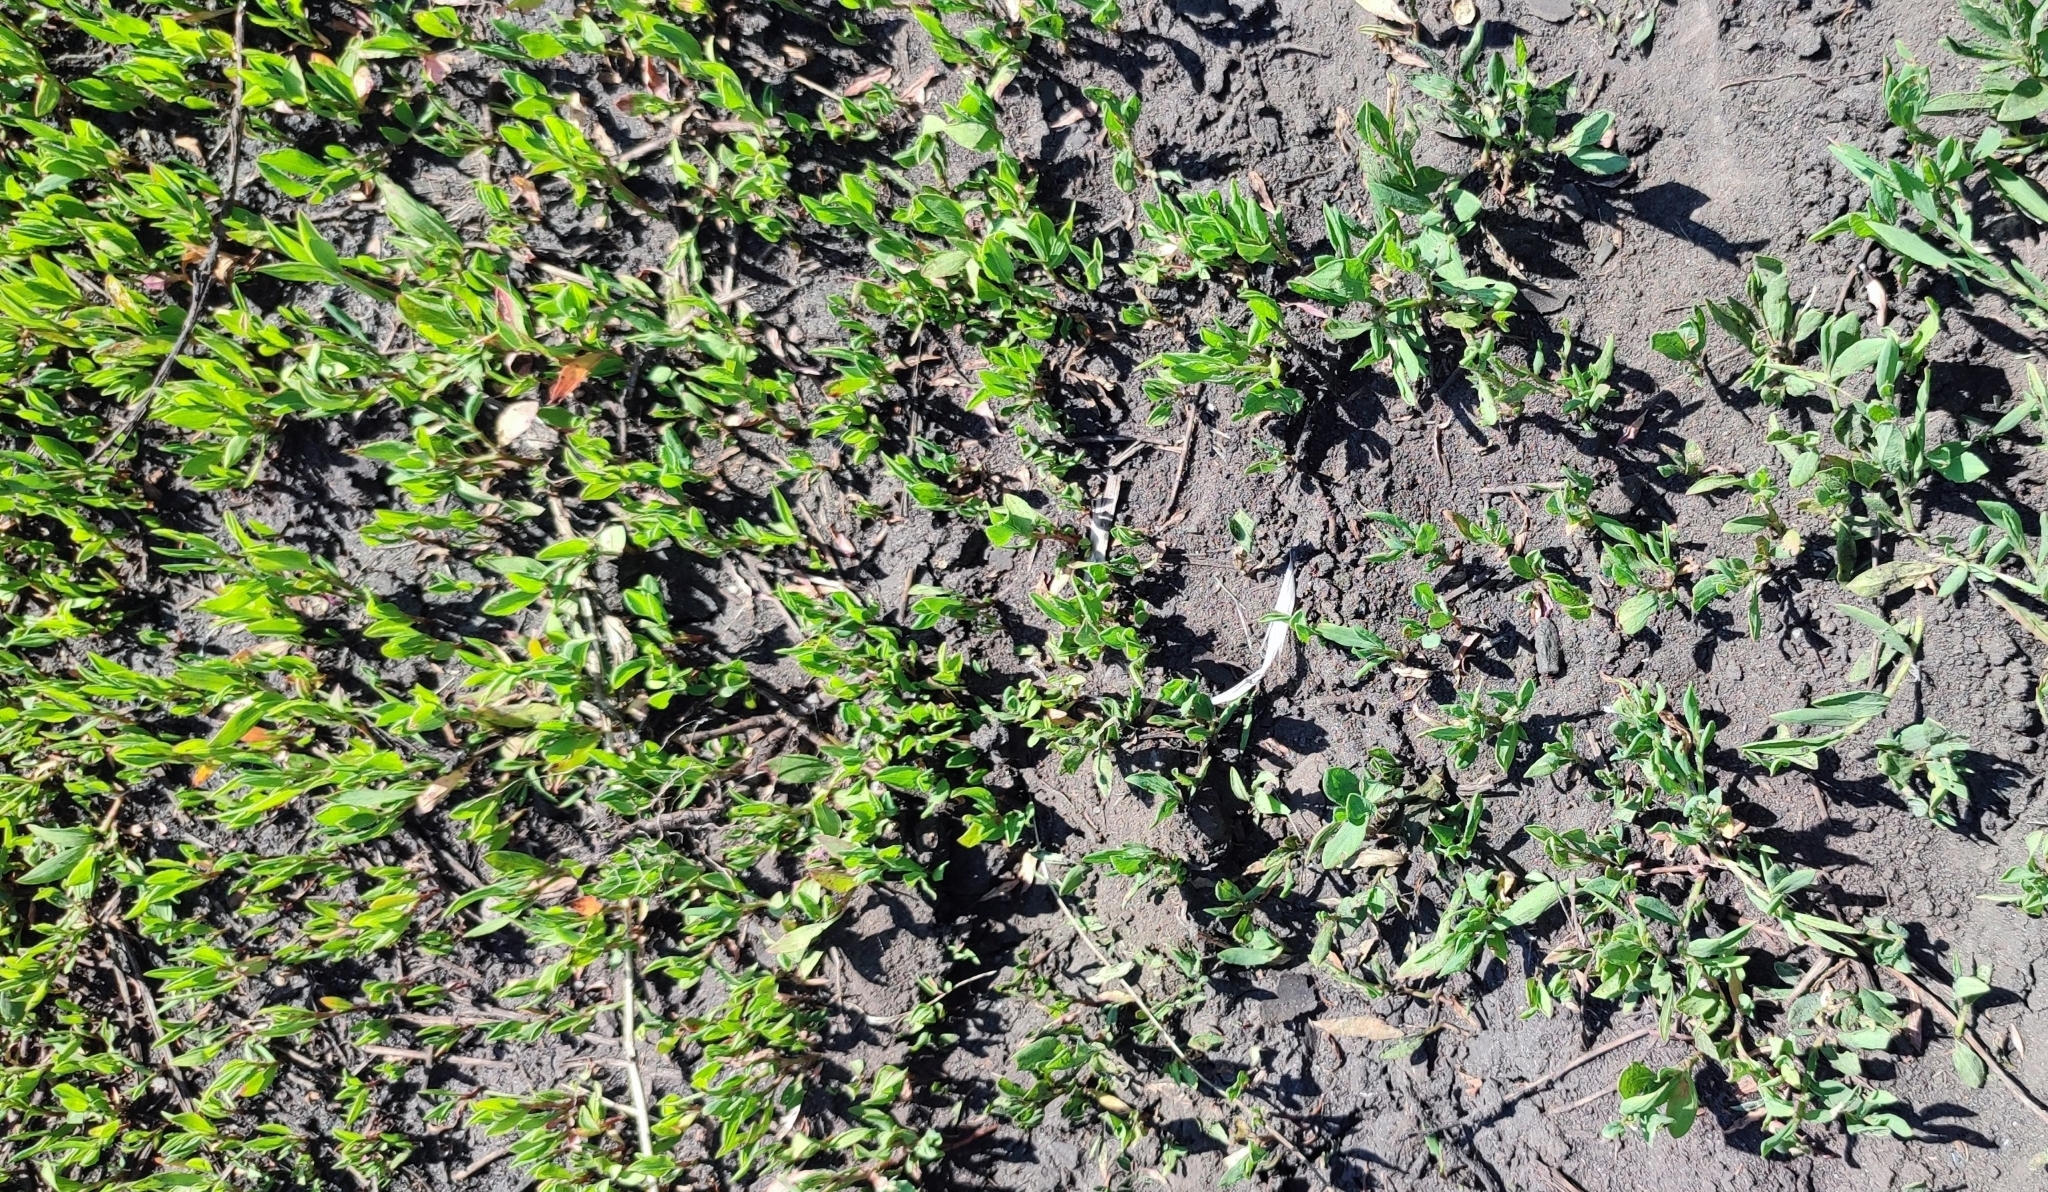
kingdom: Plantae
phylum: Tracheophyta
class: Magnoliopsida
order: Caryophyllales
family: Polygonaceae
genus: Polygonum
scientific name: Polygonum
